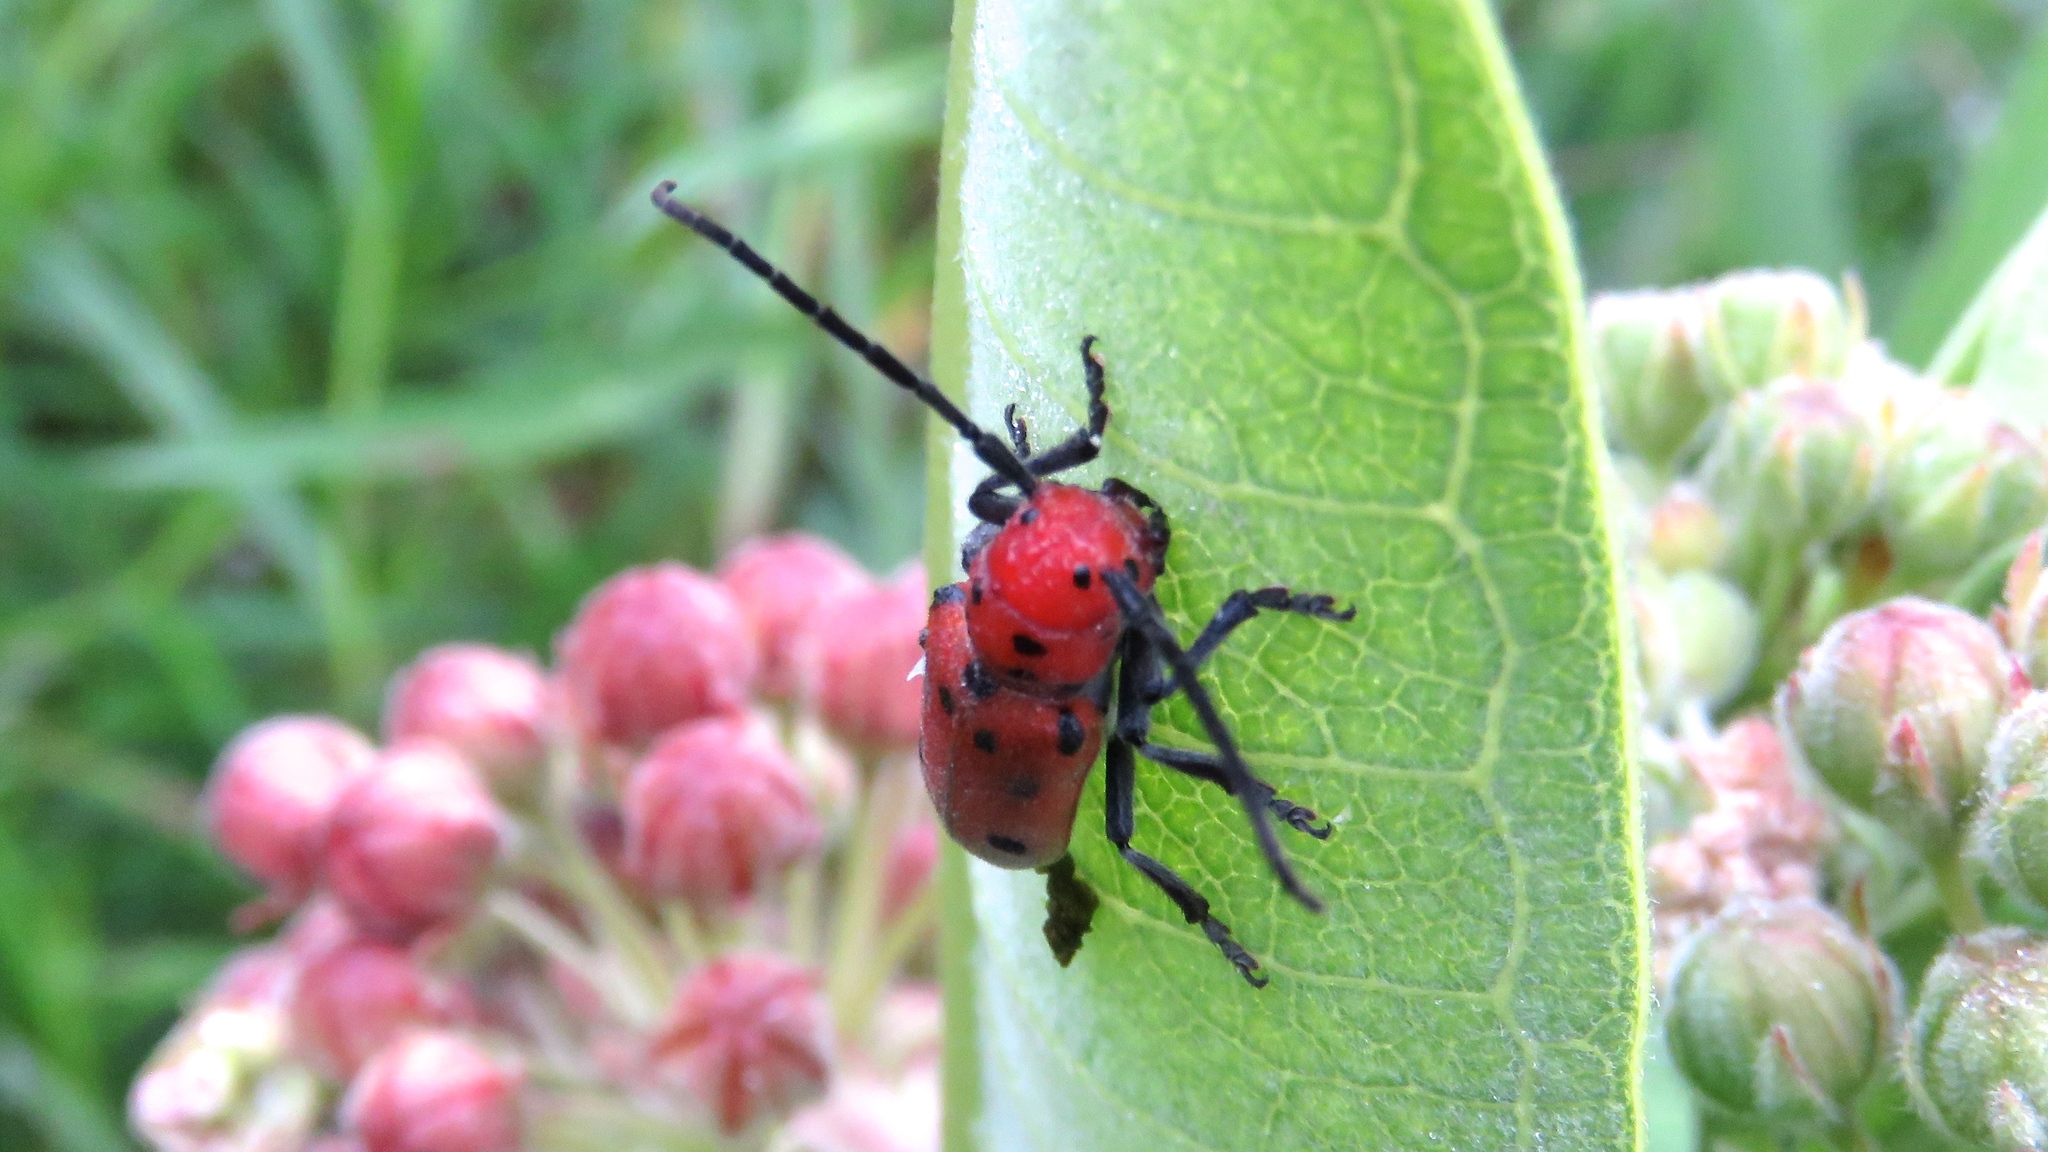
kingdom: Animalia
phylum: Arthropoda
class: Insecta
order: Coleoptera
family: Cerambycidae
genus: Tetraopes
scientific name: Tetraopes tetrophthalmus
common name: Red milkweed beetle
